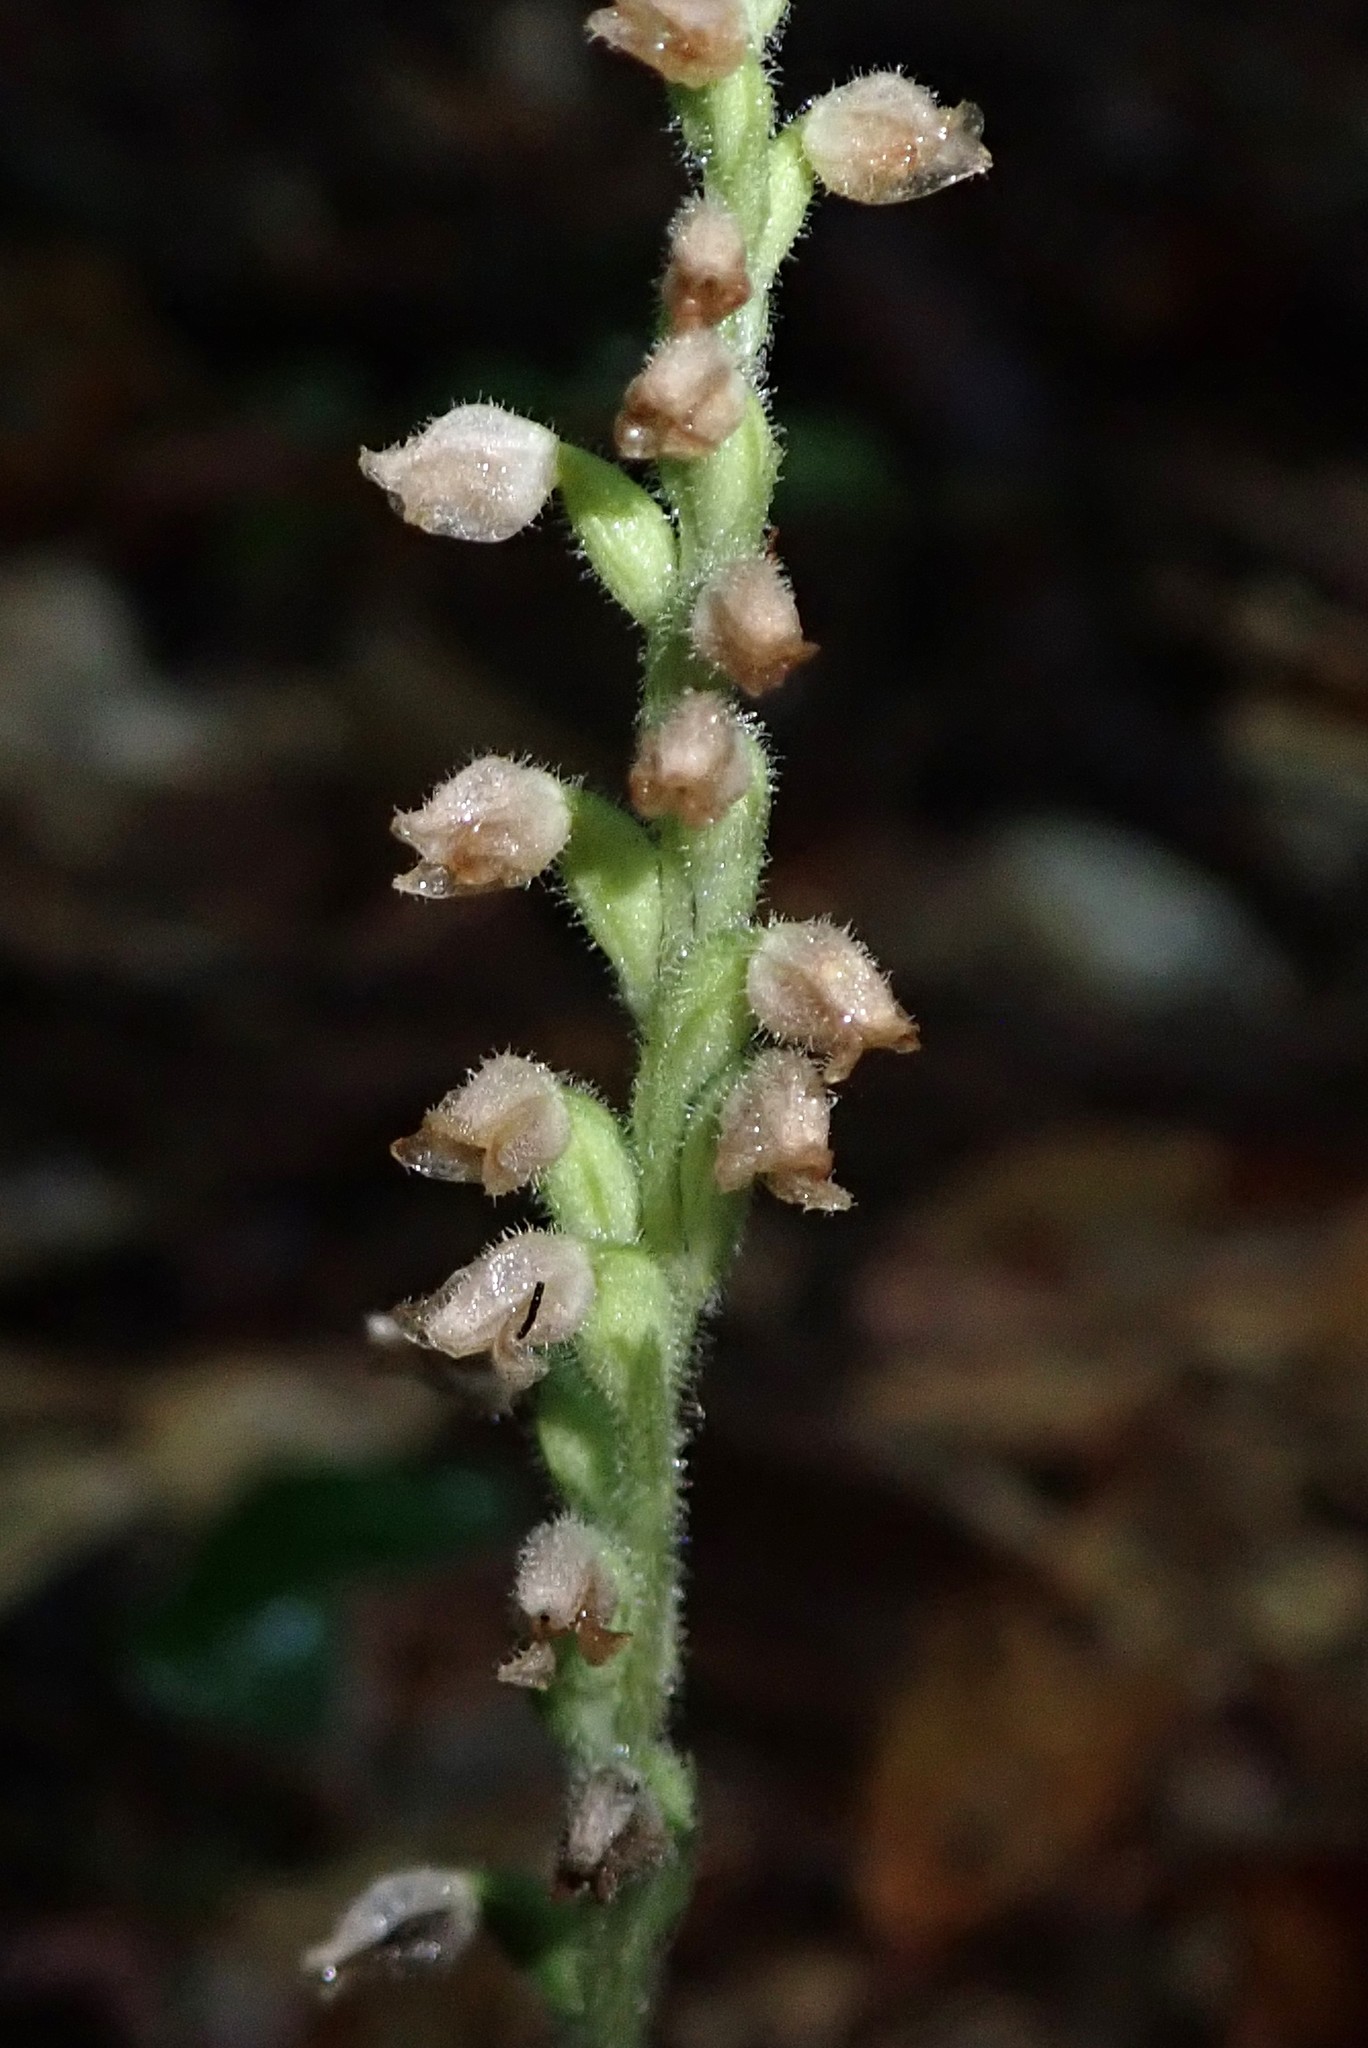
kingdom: Plantae
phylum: Tracheophyta
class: Liliopsida
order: Asparagales
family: Orchidaceae
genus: Goodyera
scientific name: Goodyera tesselata
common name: Checkered rattlesnake-plantain
